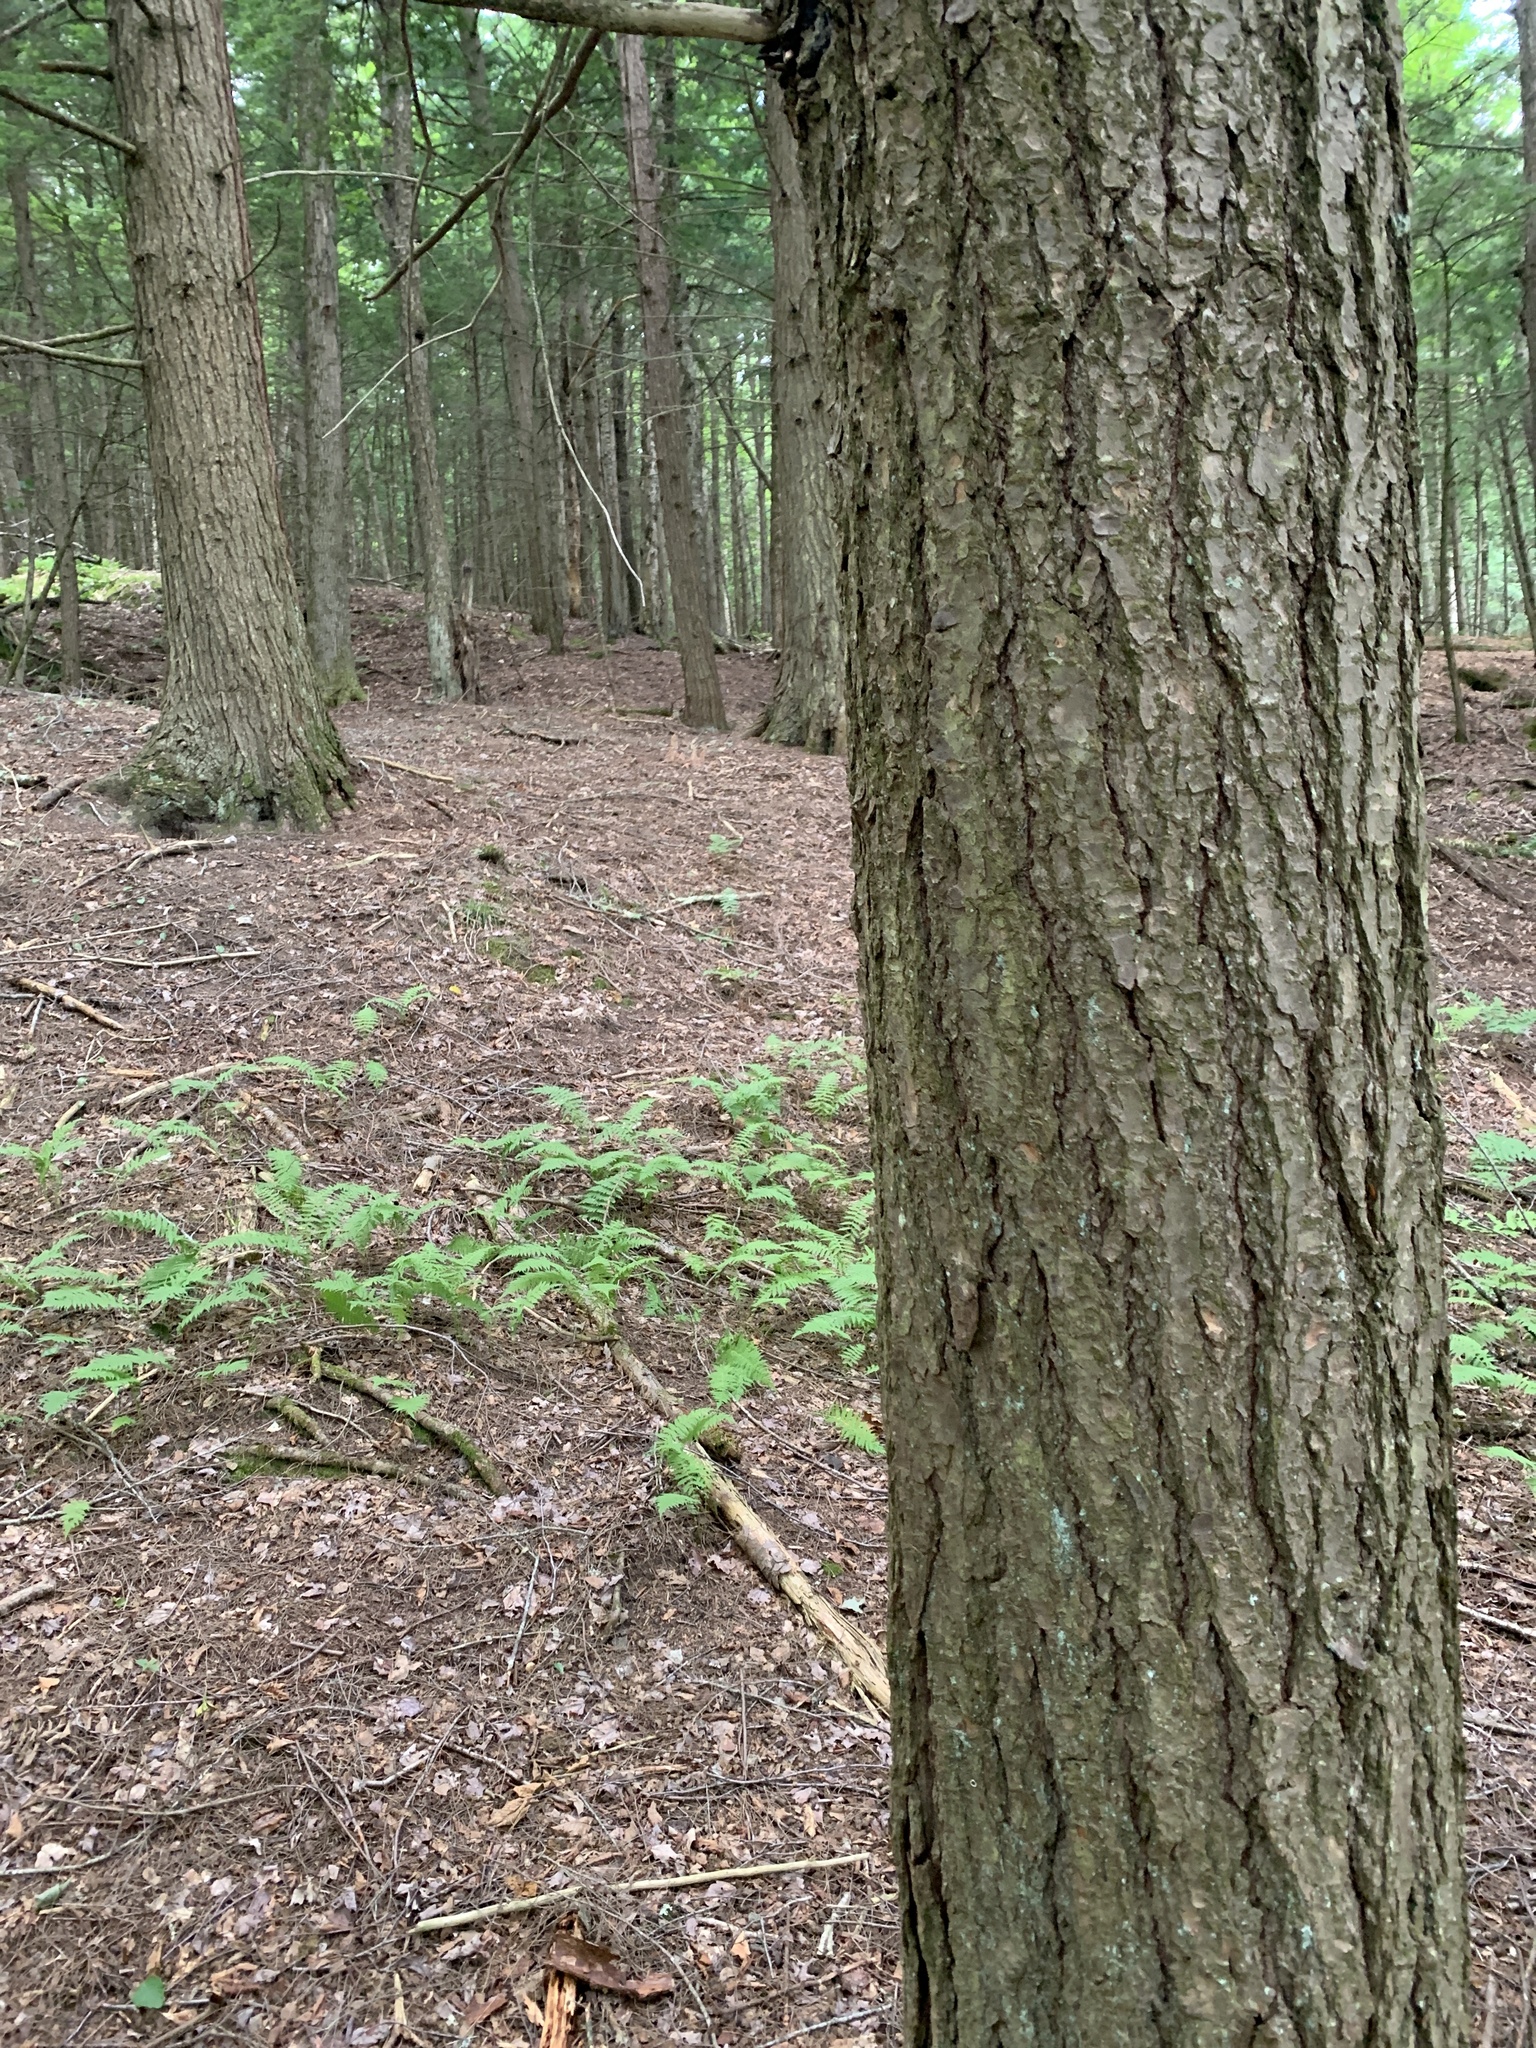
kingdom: Plantae
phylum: Tracheophyta
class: Pinopsida
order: Pinales
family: Pinaceae
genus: Tsuga
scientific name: Tsuga canadensis
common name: Eastern hemlock
